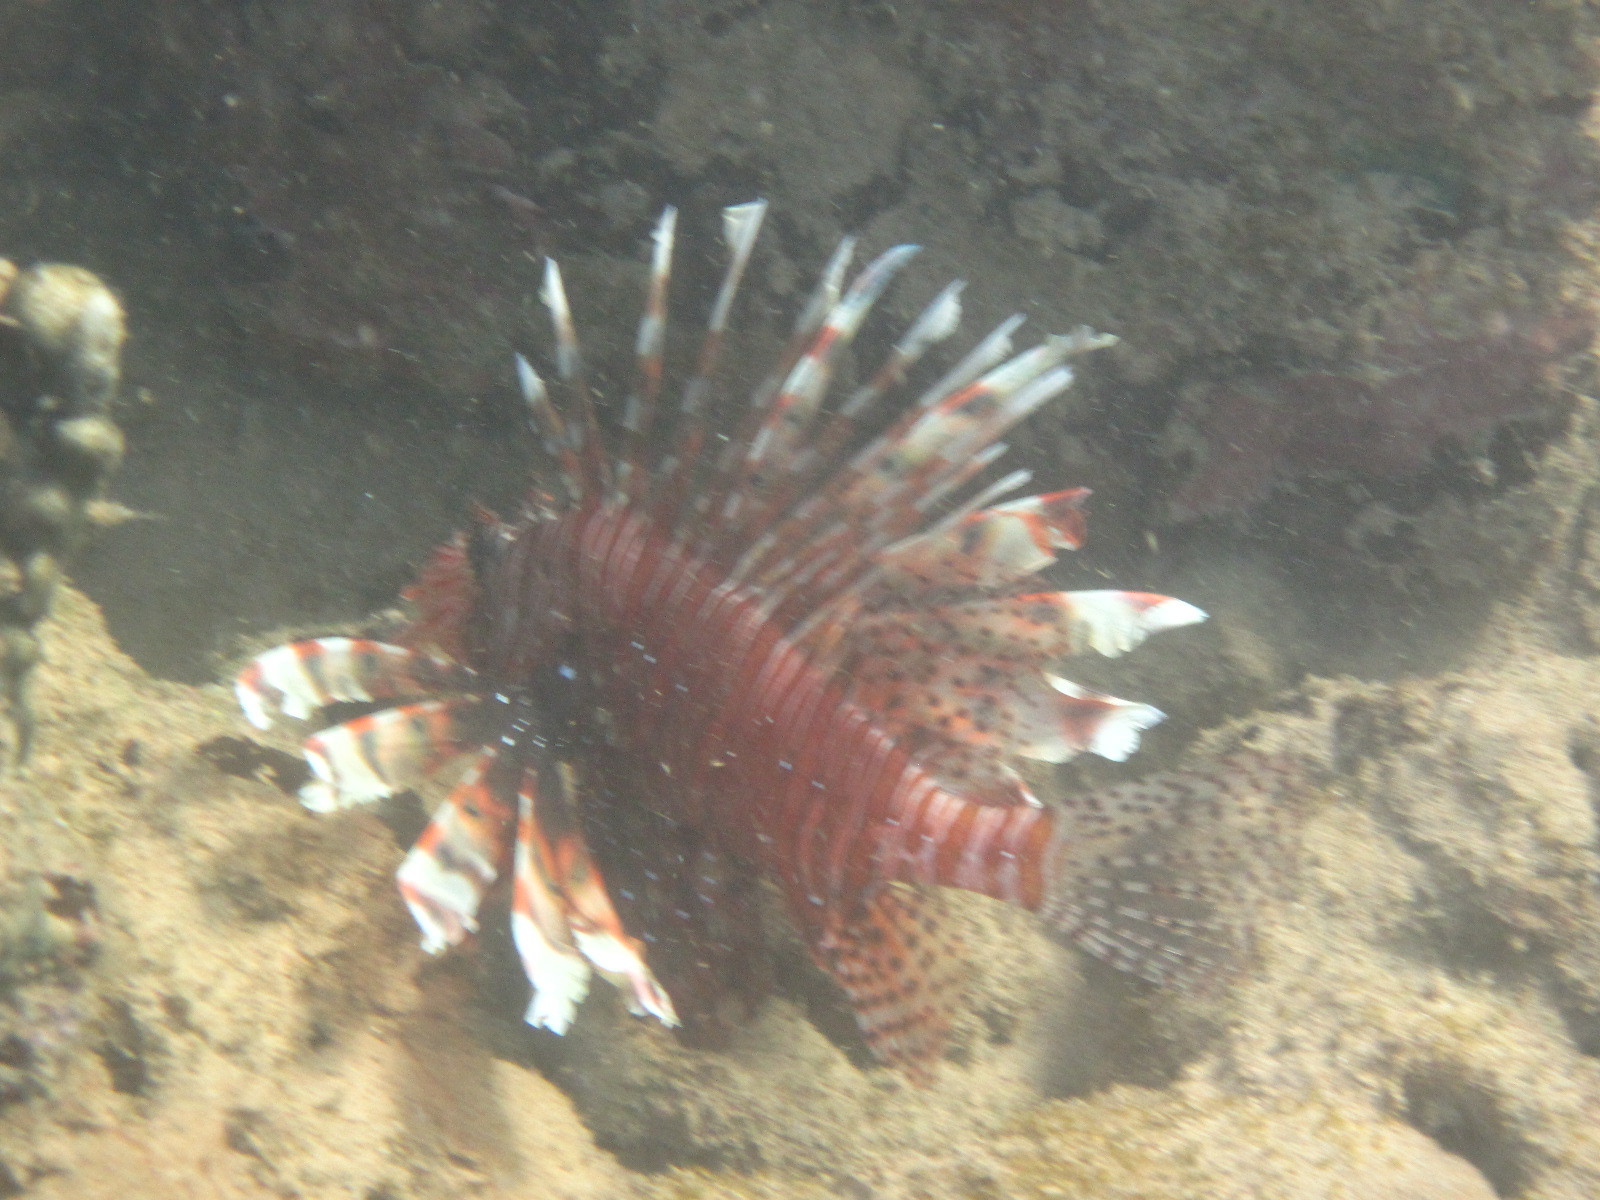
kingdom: Animalia
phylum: Chordata
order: Scorpaeniformes
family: Scorpaenidae
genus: Pterois
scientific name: Pterois miles
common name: Devil firefish
